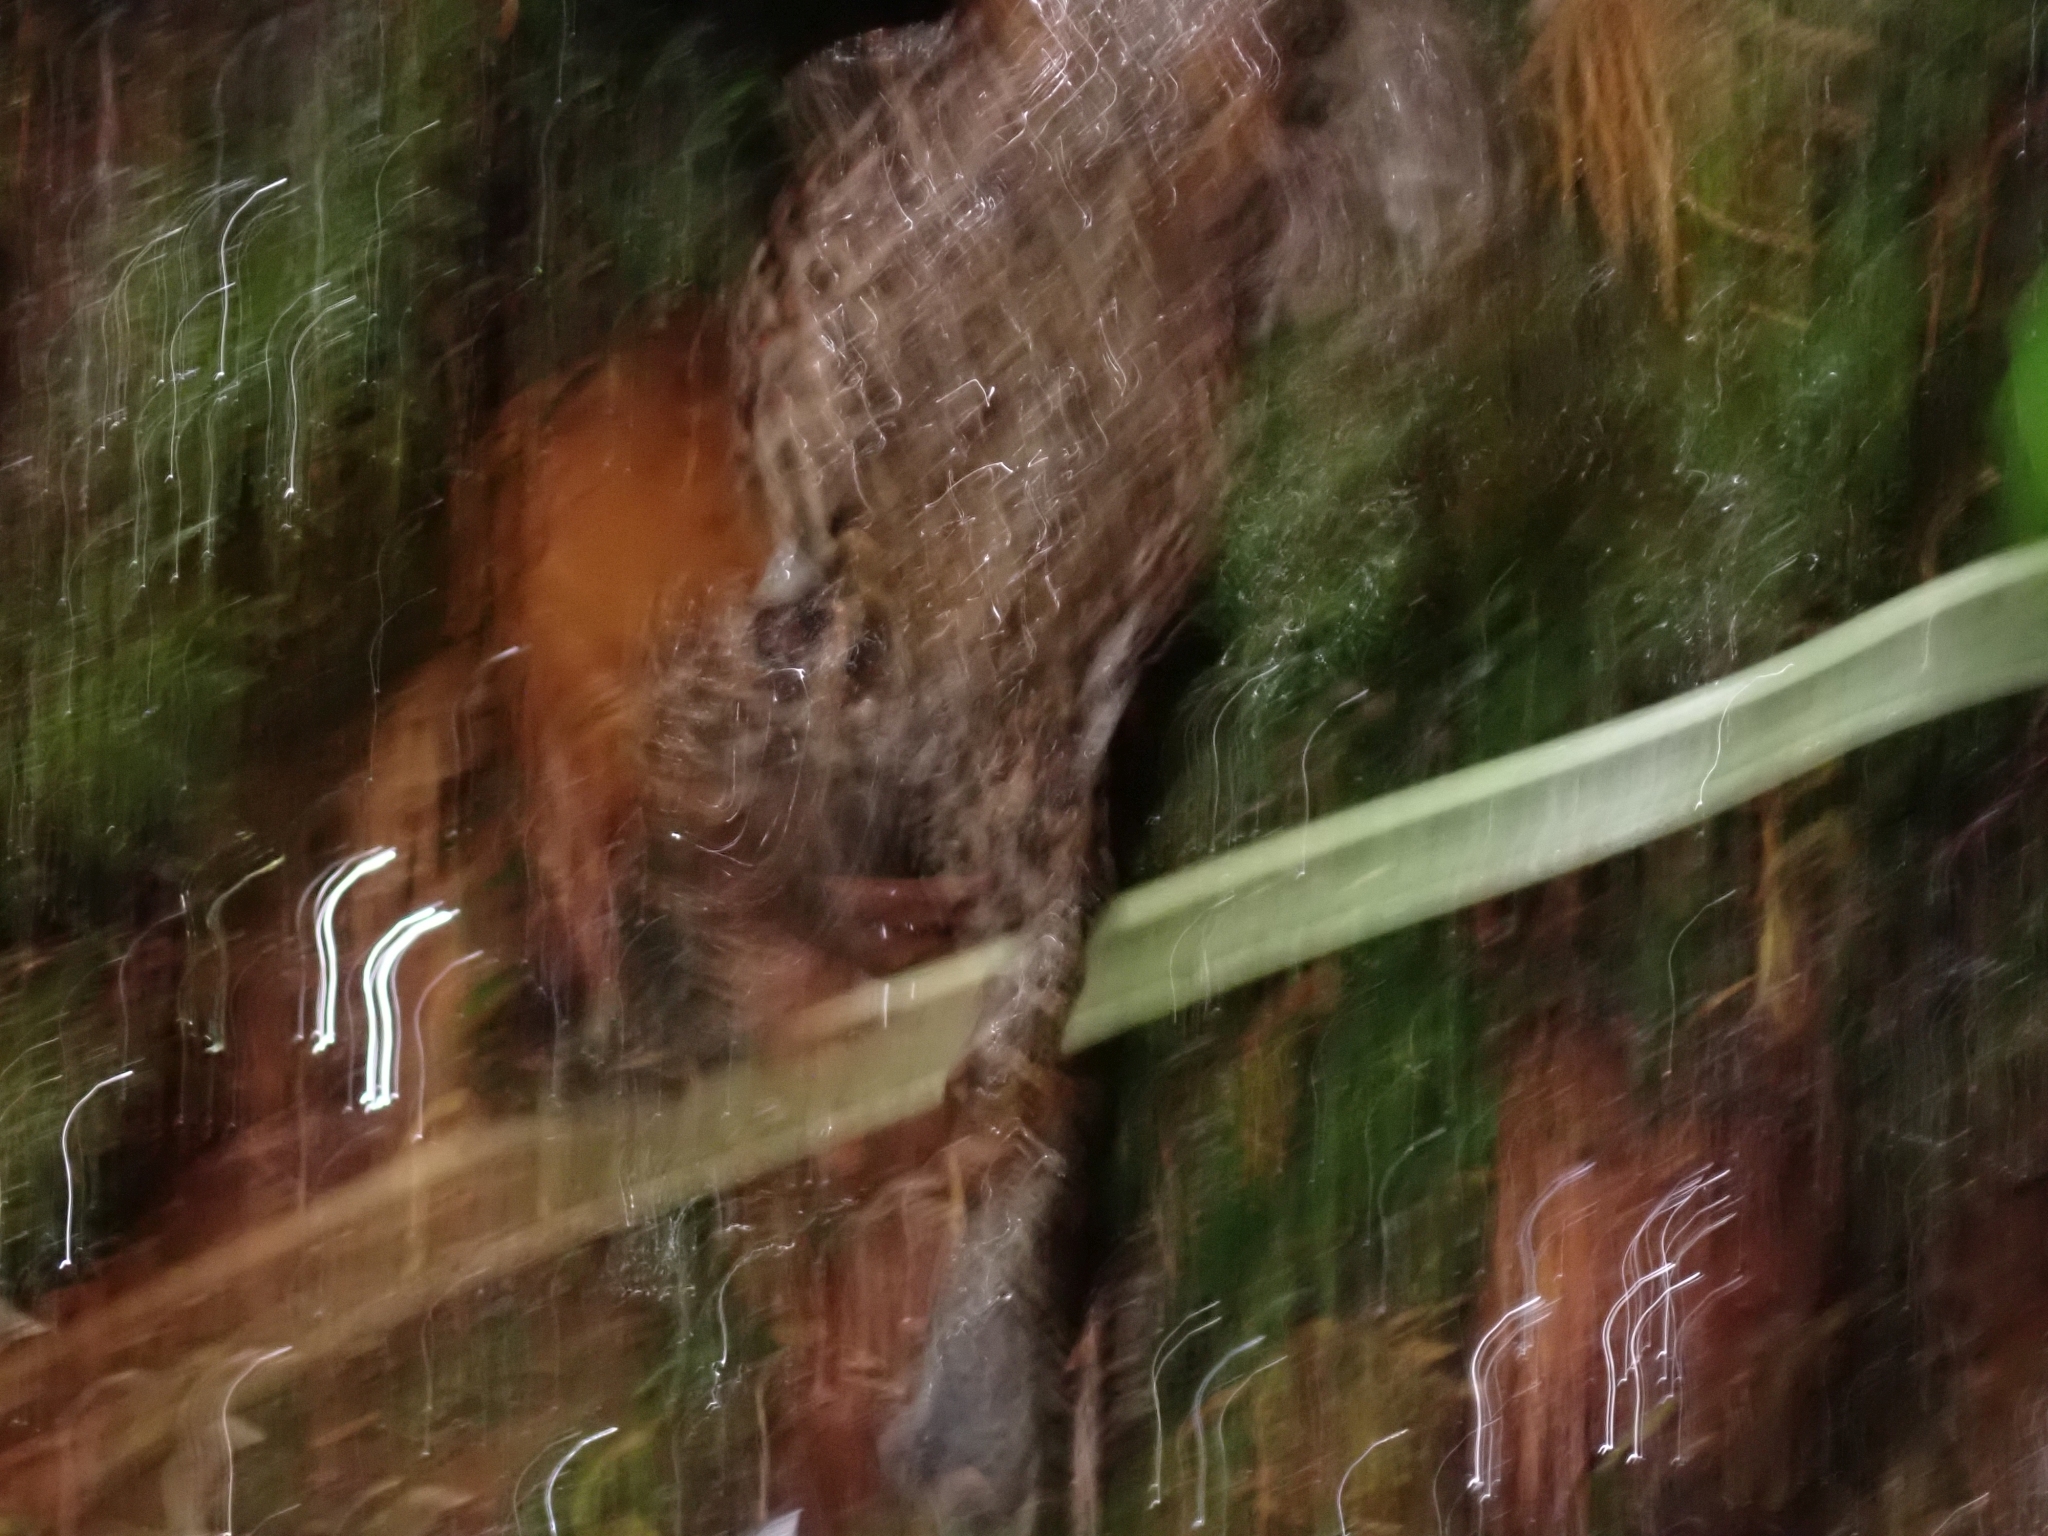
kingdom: Animalia
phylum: Chordata
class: Amphibia
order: Anura
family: Bufonidae
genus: Anaxyrus
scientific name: Anaxyrus boreas
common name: Western toad
